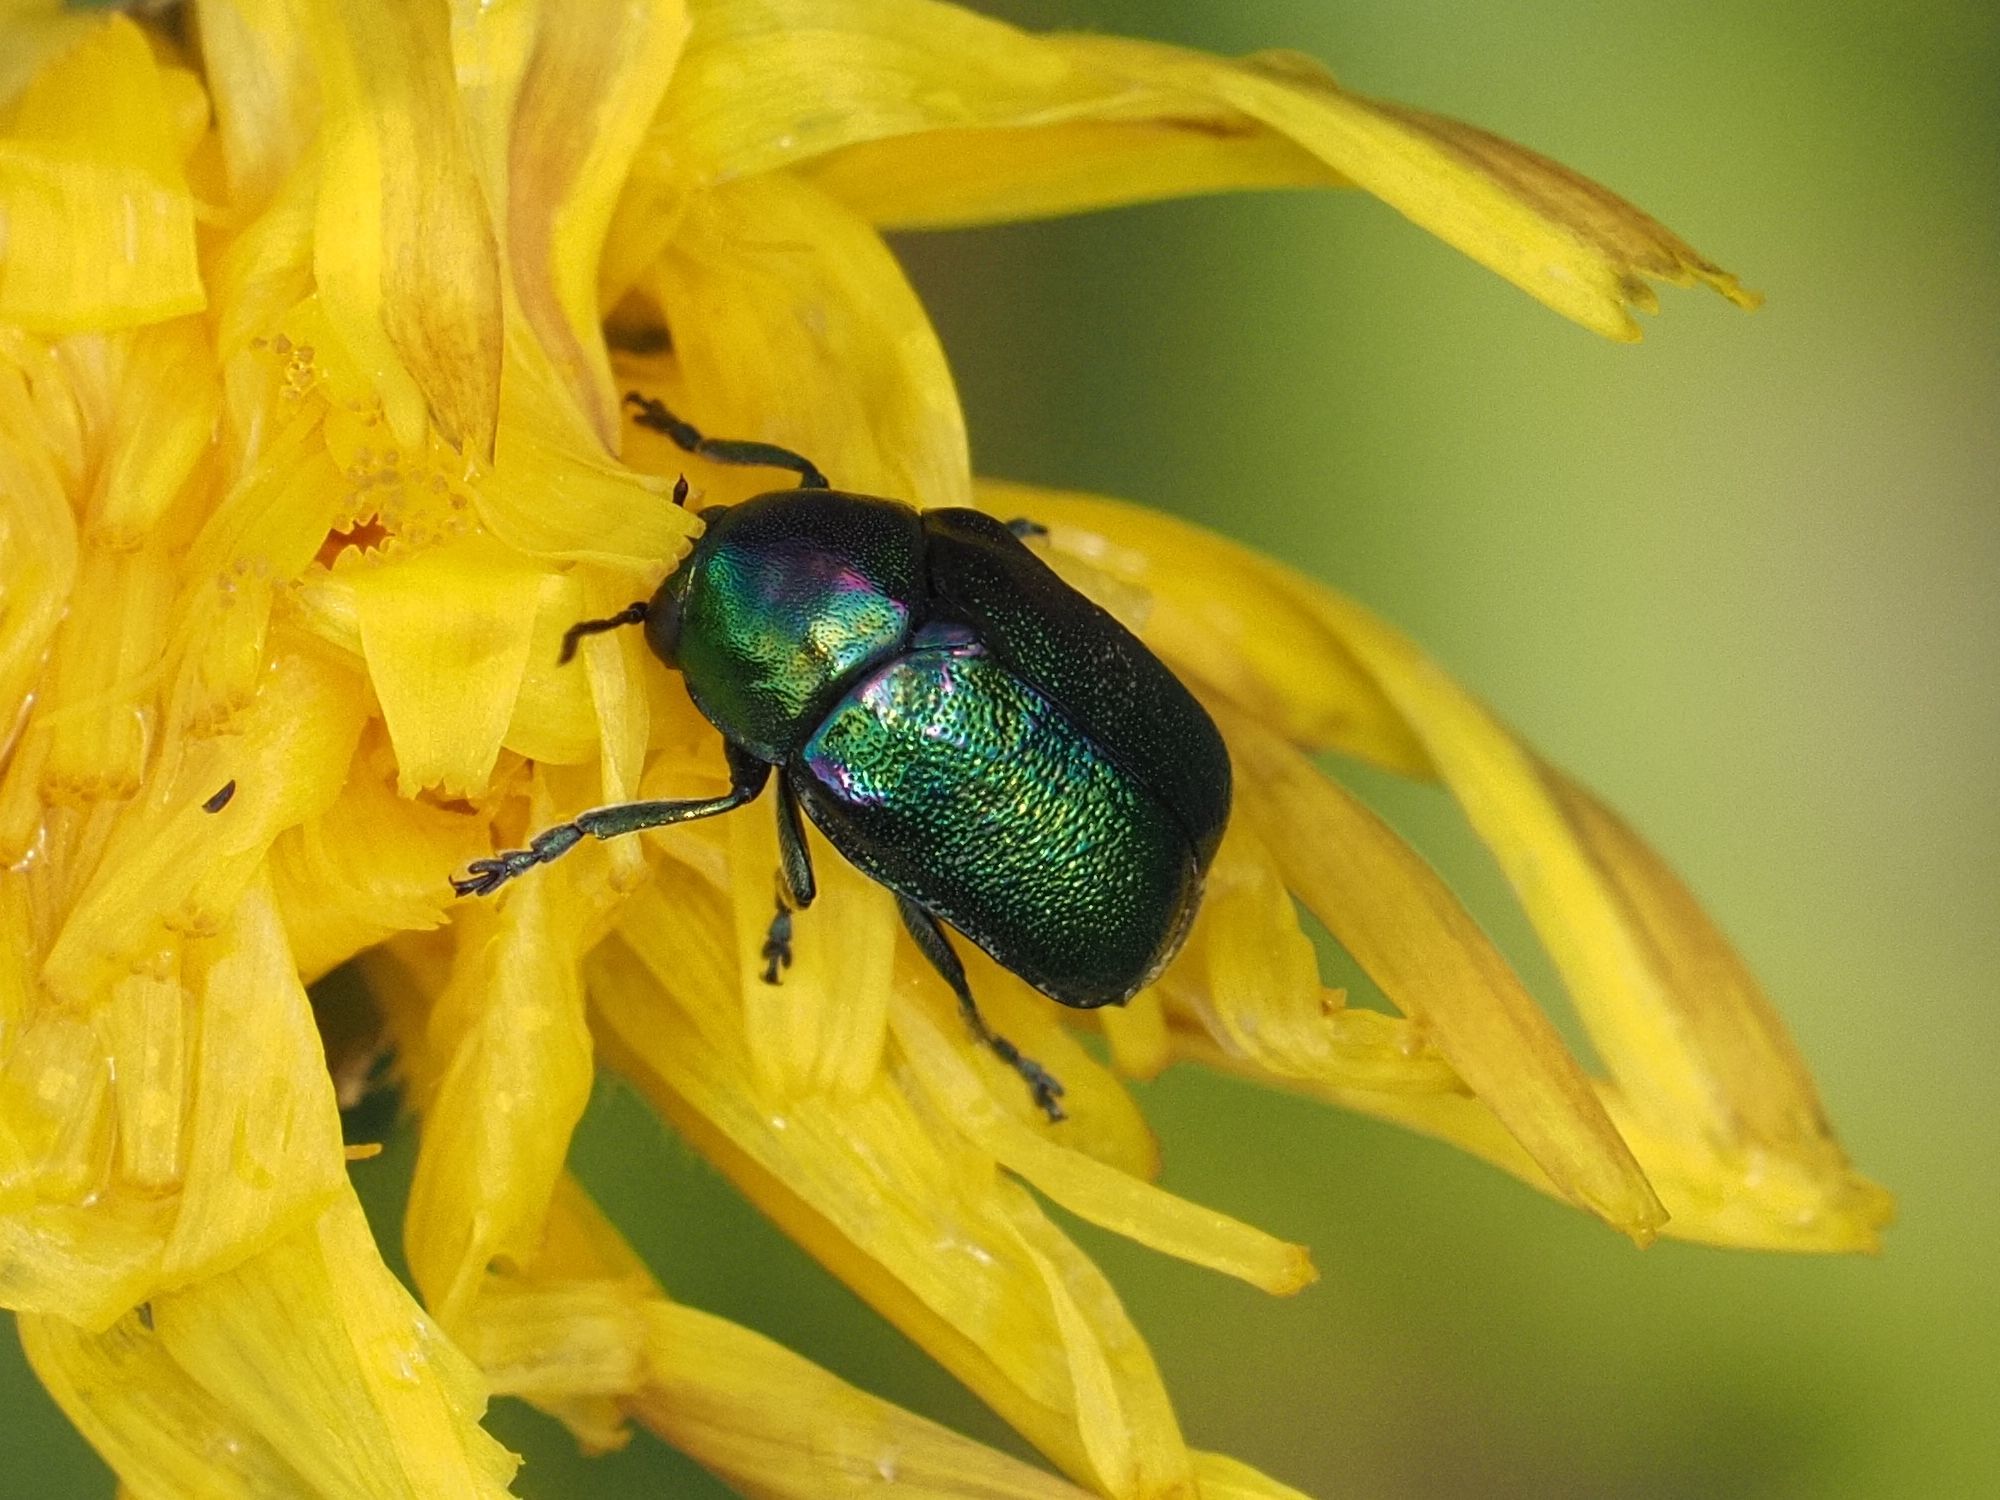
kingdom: Animalia
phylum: Arthropoda
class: Insecta
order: Coleoptera
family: Chrysomelidae
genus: Cryptocephalus
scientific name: Cryptocephalus
